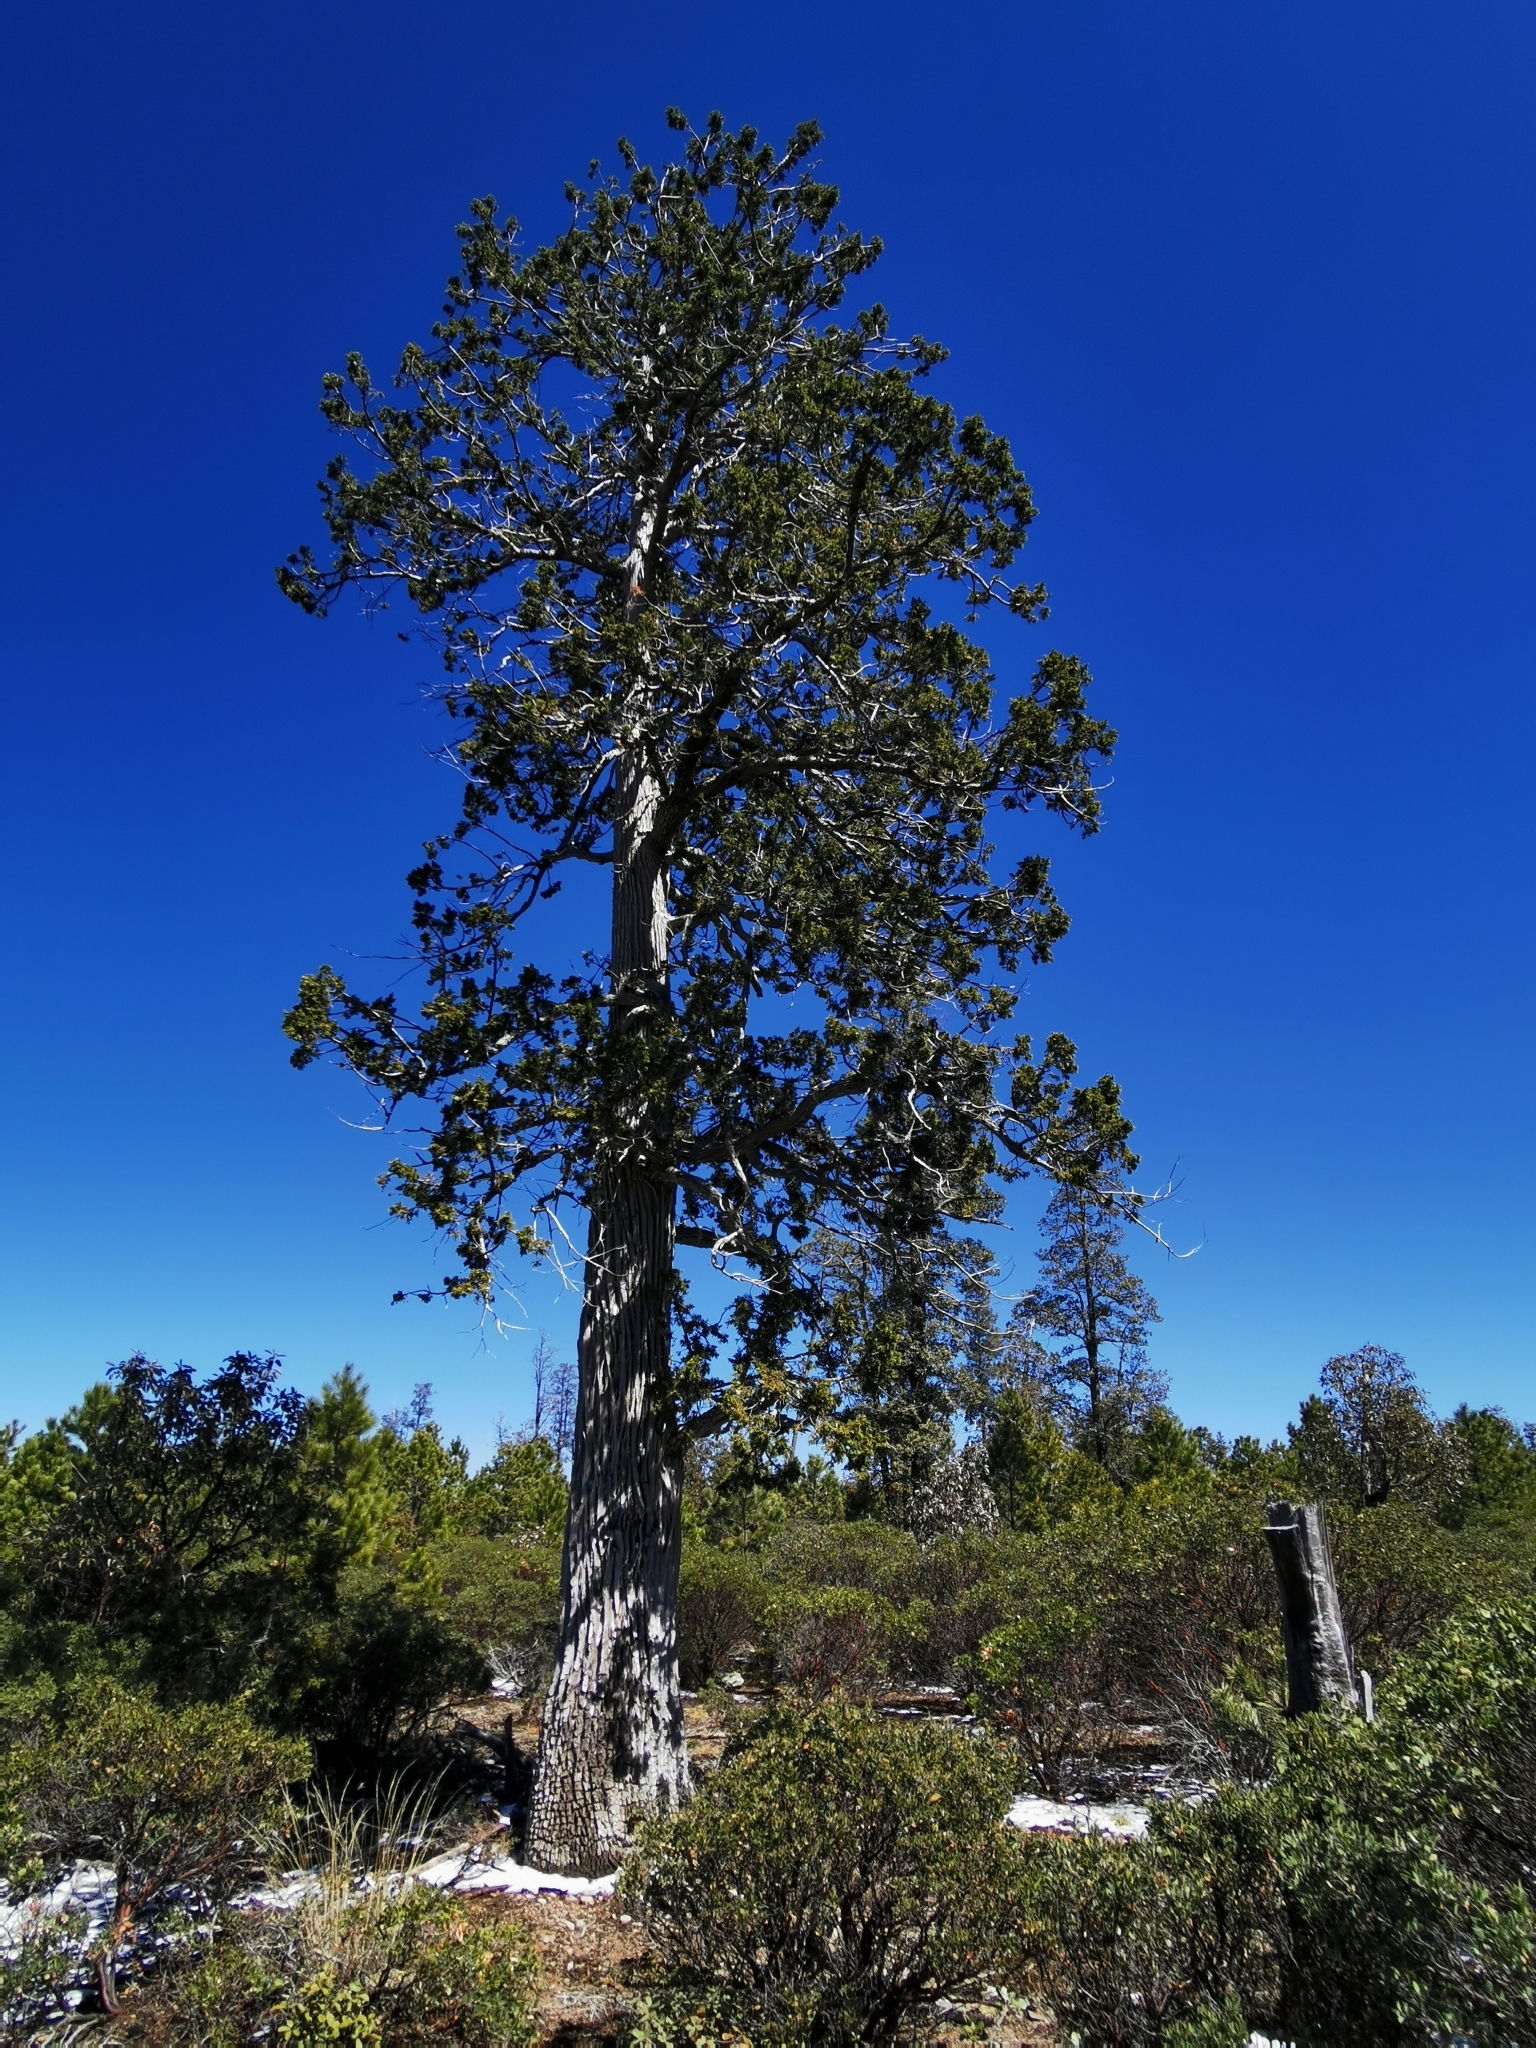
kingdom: Plantae
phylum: Tracheophyta
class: Pinopsida
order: Pinales
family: Cupressaceae
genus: Juniperus
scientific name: Juniperus deppeana
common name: Alligator juniper
